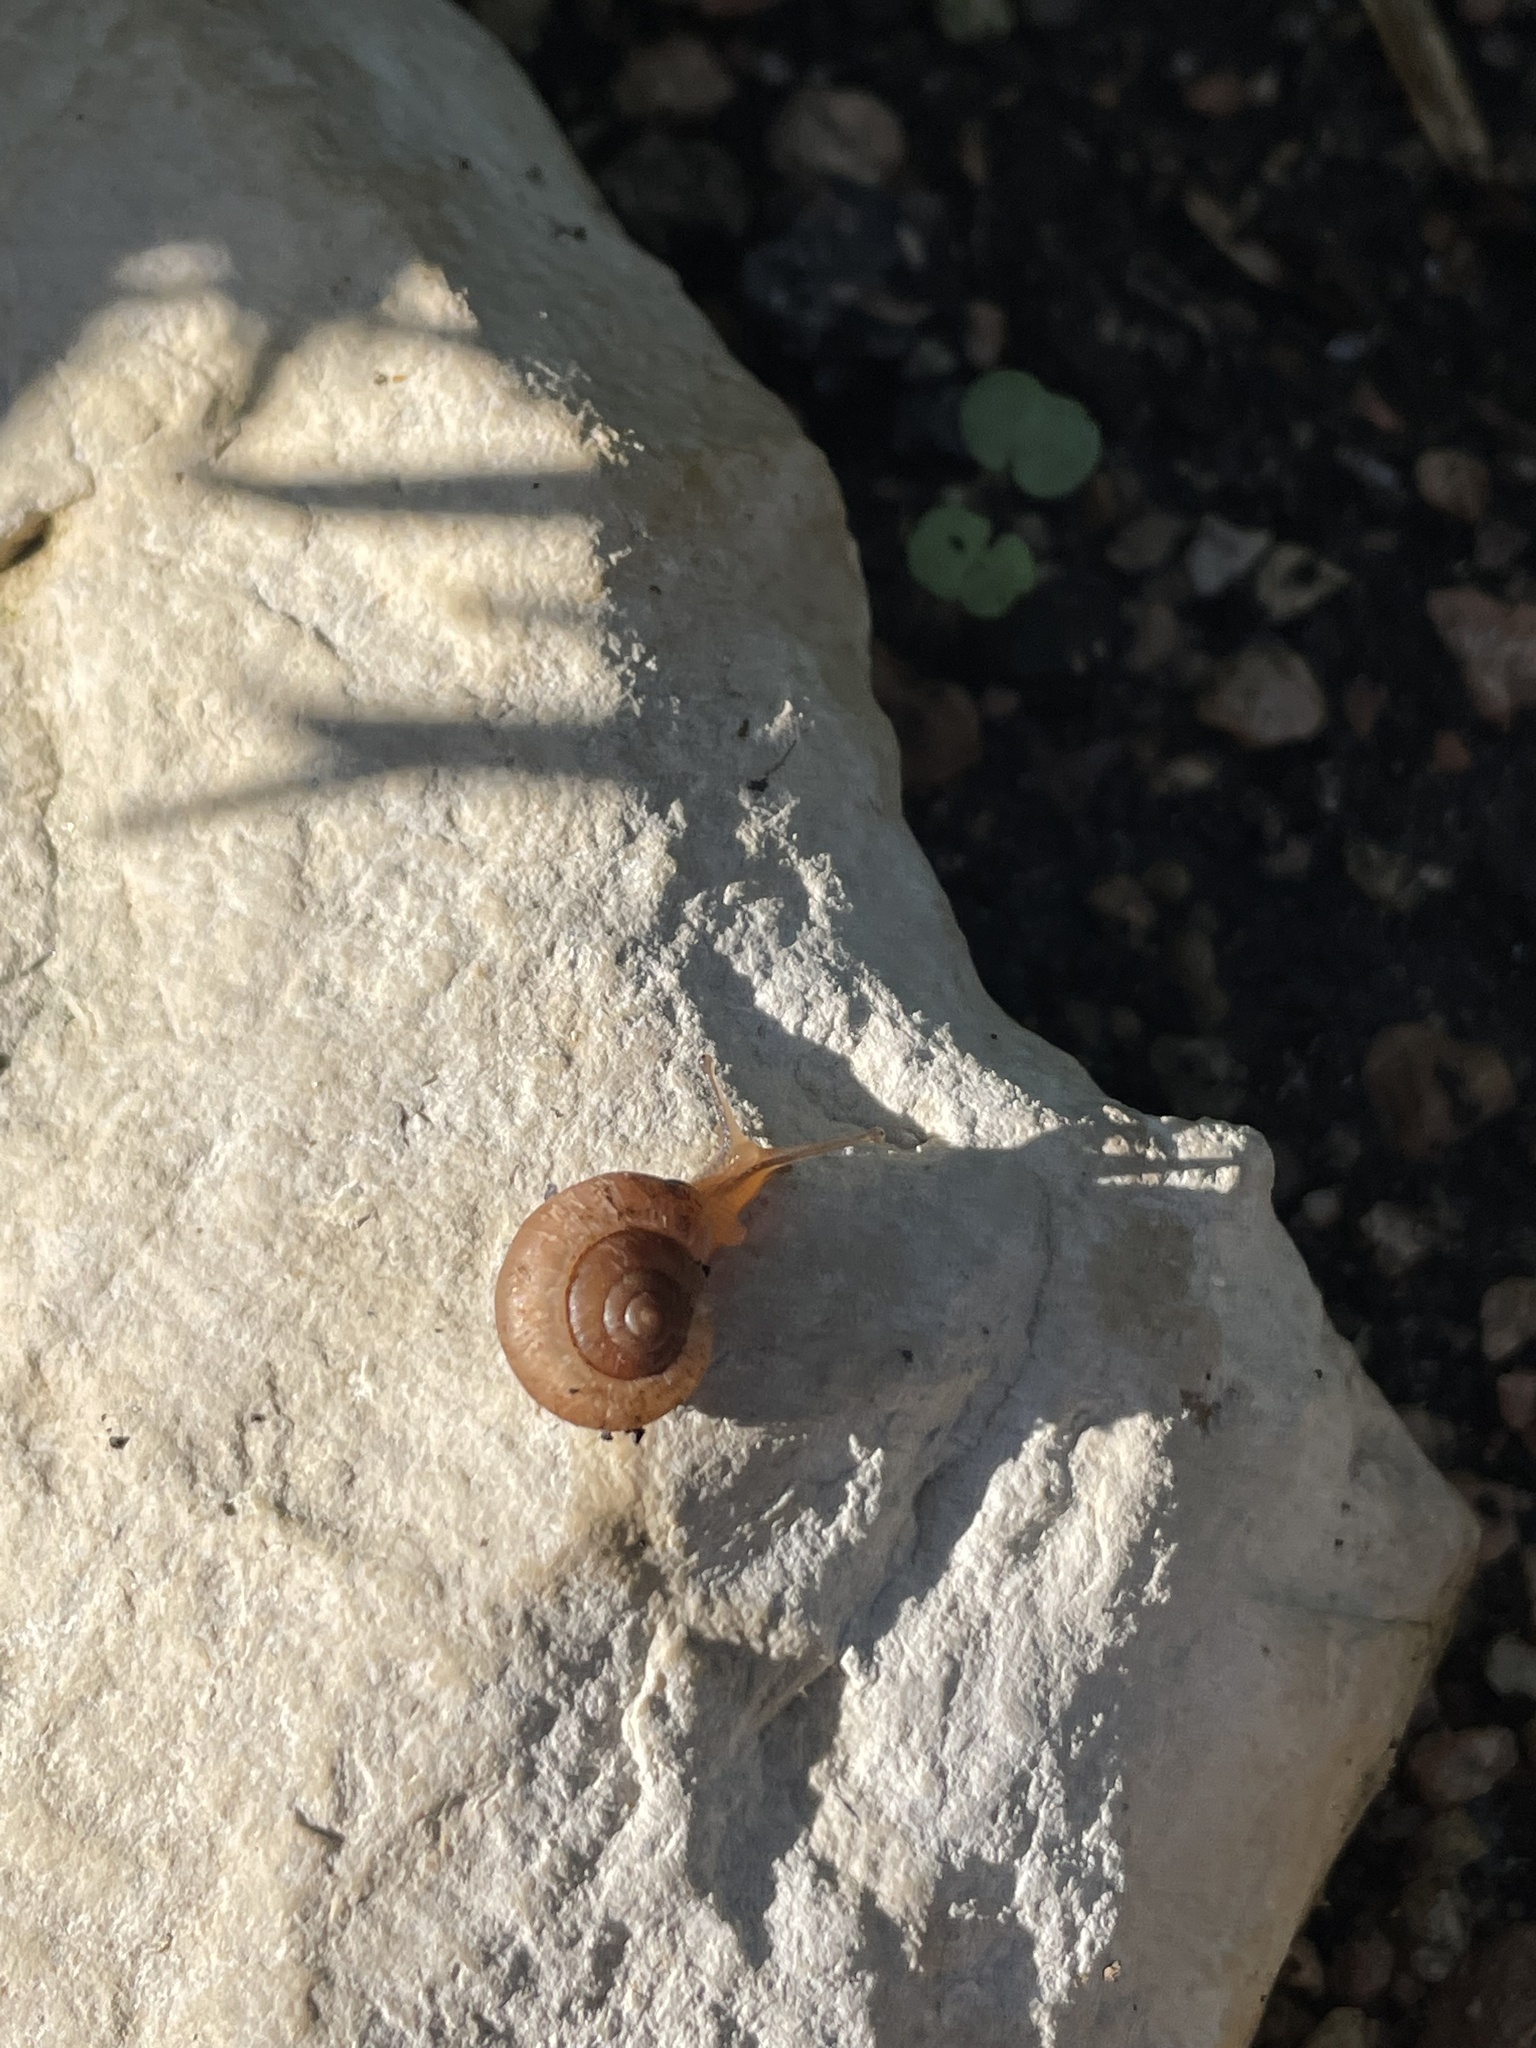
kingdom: Animalia
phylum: Mollusca
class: Gastropoda
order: Stylommatophora
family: Camaenidae
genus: Bradybaena
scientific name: Bradybaena similaris
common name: Asian trampsnail
